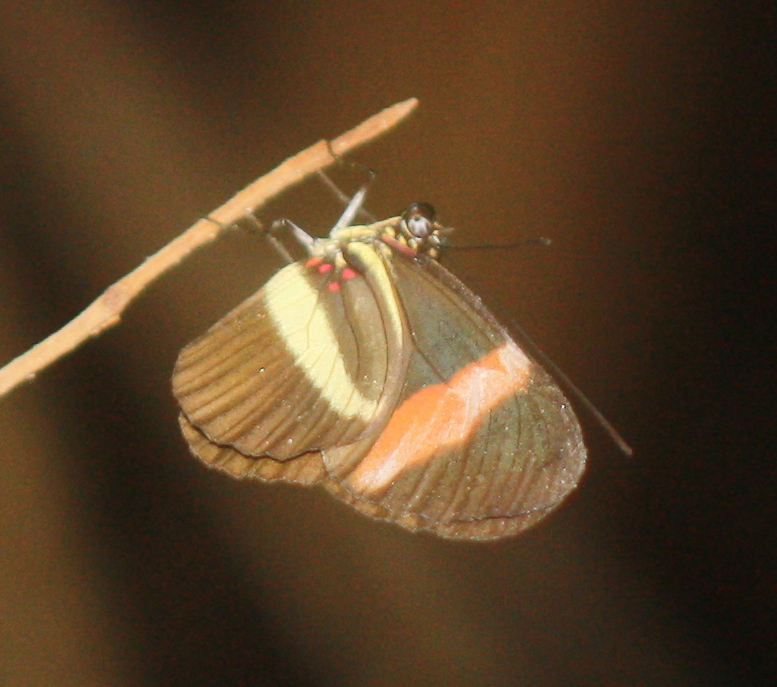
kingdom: Animalia
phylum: Arthropoda
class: Insecta
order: Lepidoptera
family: Nymphalidae
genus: Heliconius
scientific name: Heliconius erato
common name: Common patch longwing
